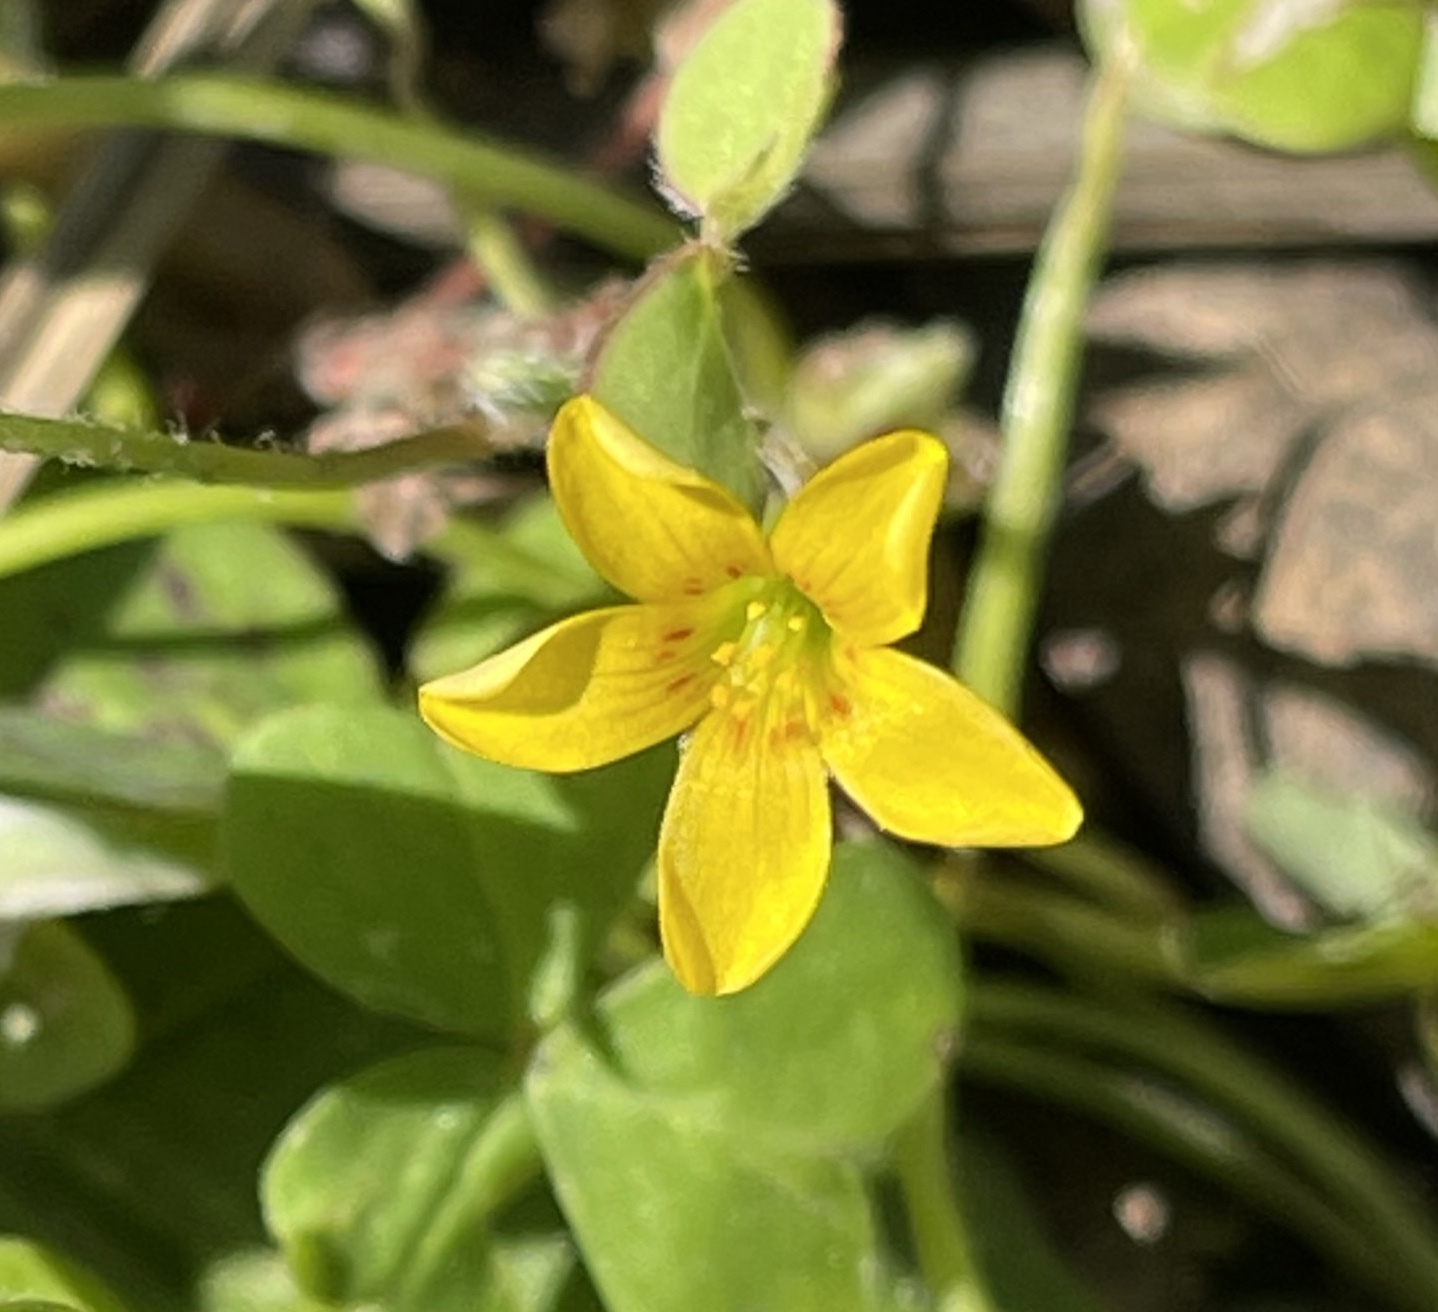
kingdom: Plantae
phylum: Tracheophyta
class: Magnoliopsida
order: Oxalidales
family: Oxalidaceae
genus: Oxalis
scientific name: Oxalis corniculata
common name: Procumbent yellow-sorrel
